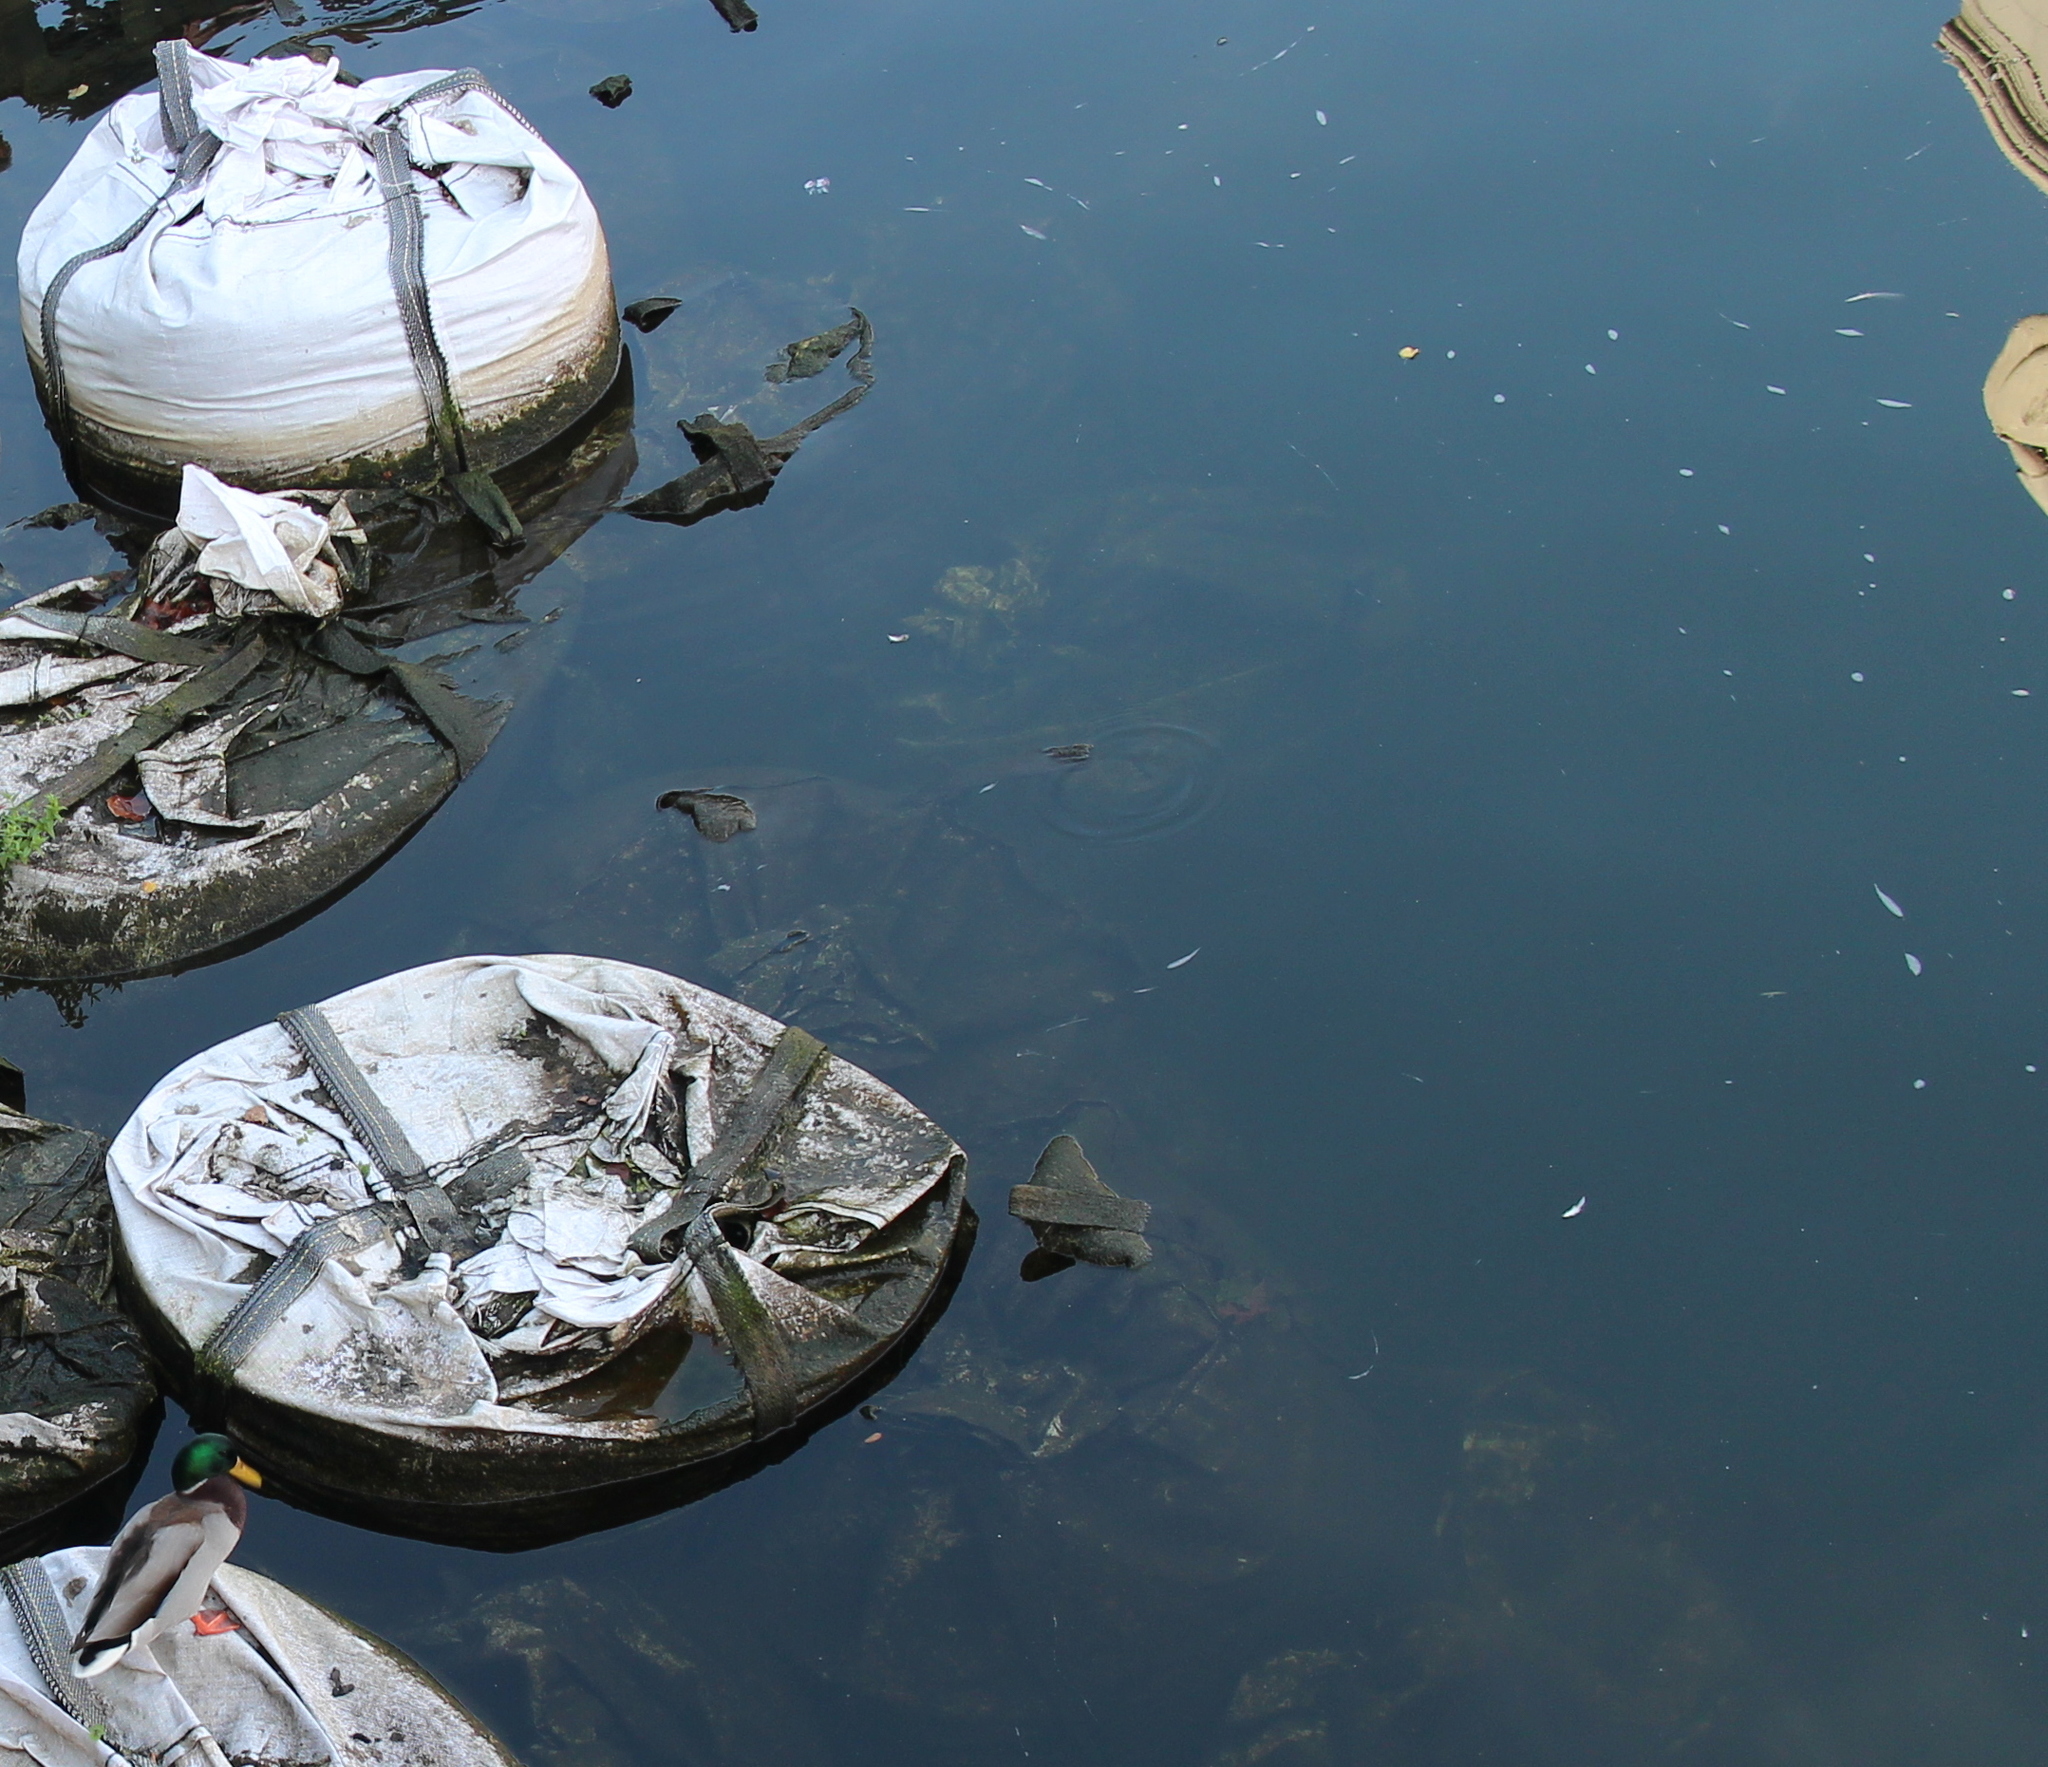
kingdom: Animalia
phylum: Chordata
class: Aves
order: Anseriformes
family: Anatidae
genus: Anas
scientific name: Anas platyrhynchos
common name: Mallard
